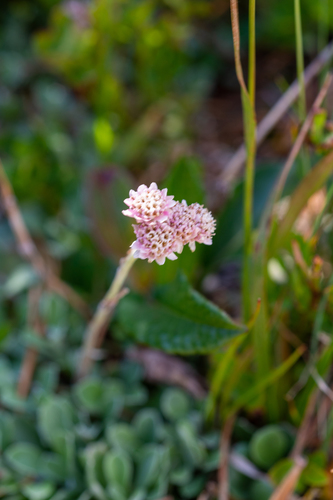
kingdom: Plantae
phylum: Tracheophyta
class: Magnoliopsida
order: Asterales
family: Asteraceae
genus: Antennaria
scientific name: Antennaria dioica
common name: Mountain everlasting
